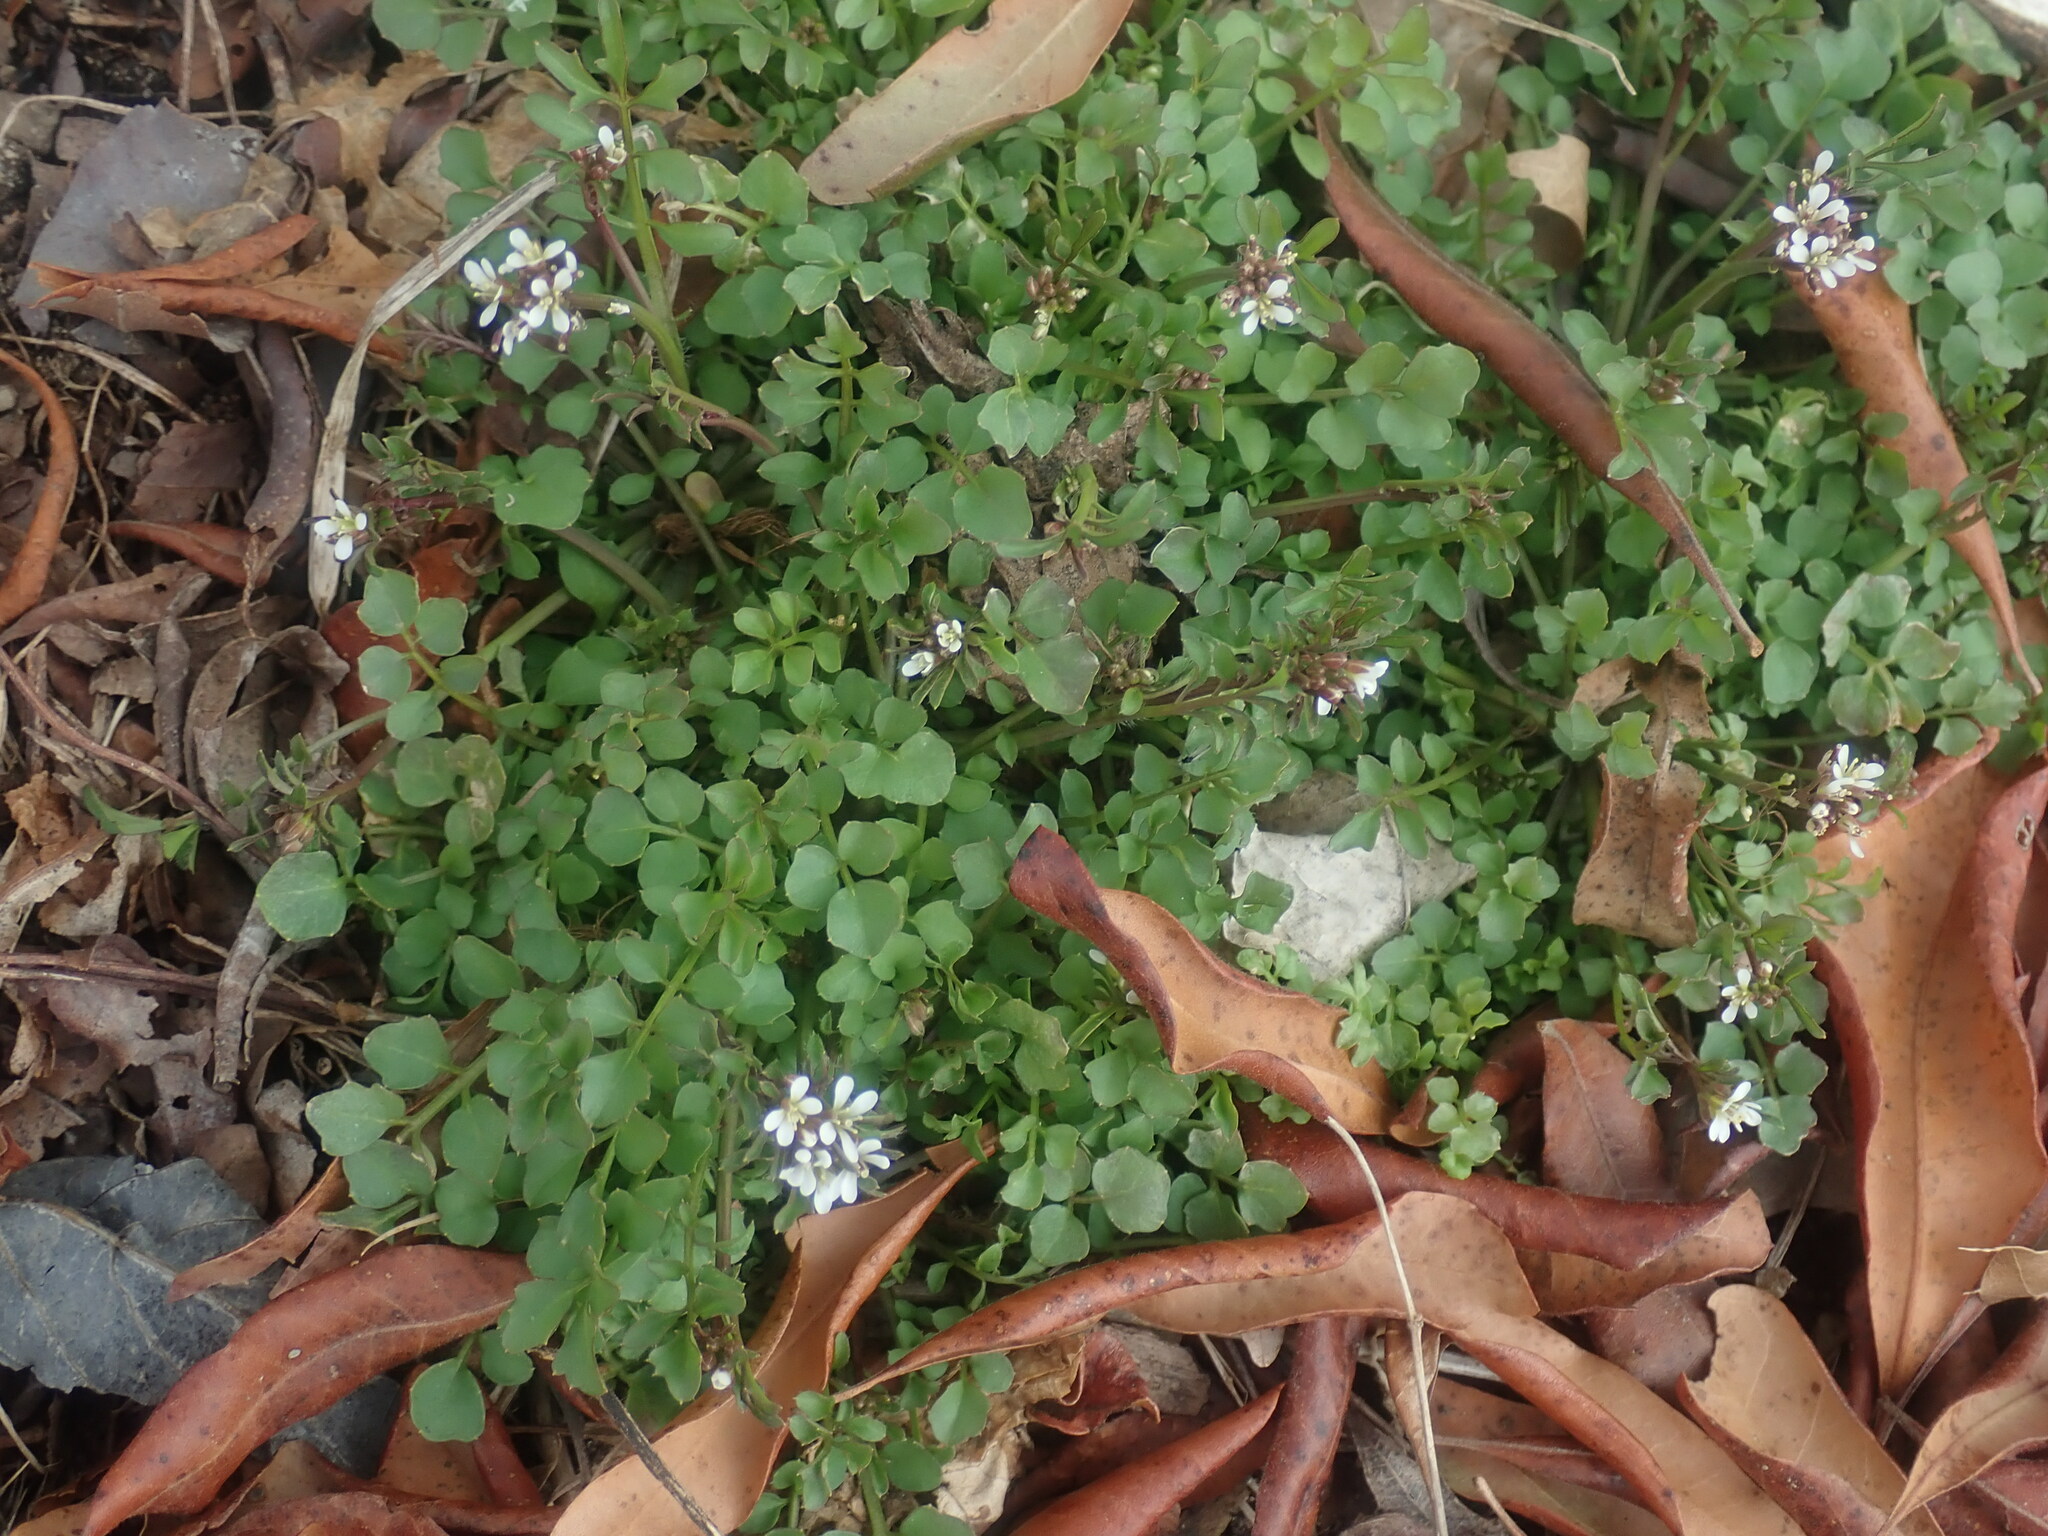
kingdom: Plantae
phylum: Tracheophyta
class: Magnoliopsida
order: Brassicales
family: Brassicaceae
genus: Cardamine
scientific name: Cardamine hirsuta
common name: Hairy bittercress
